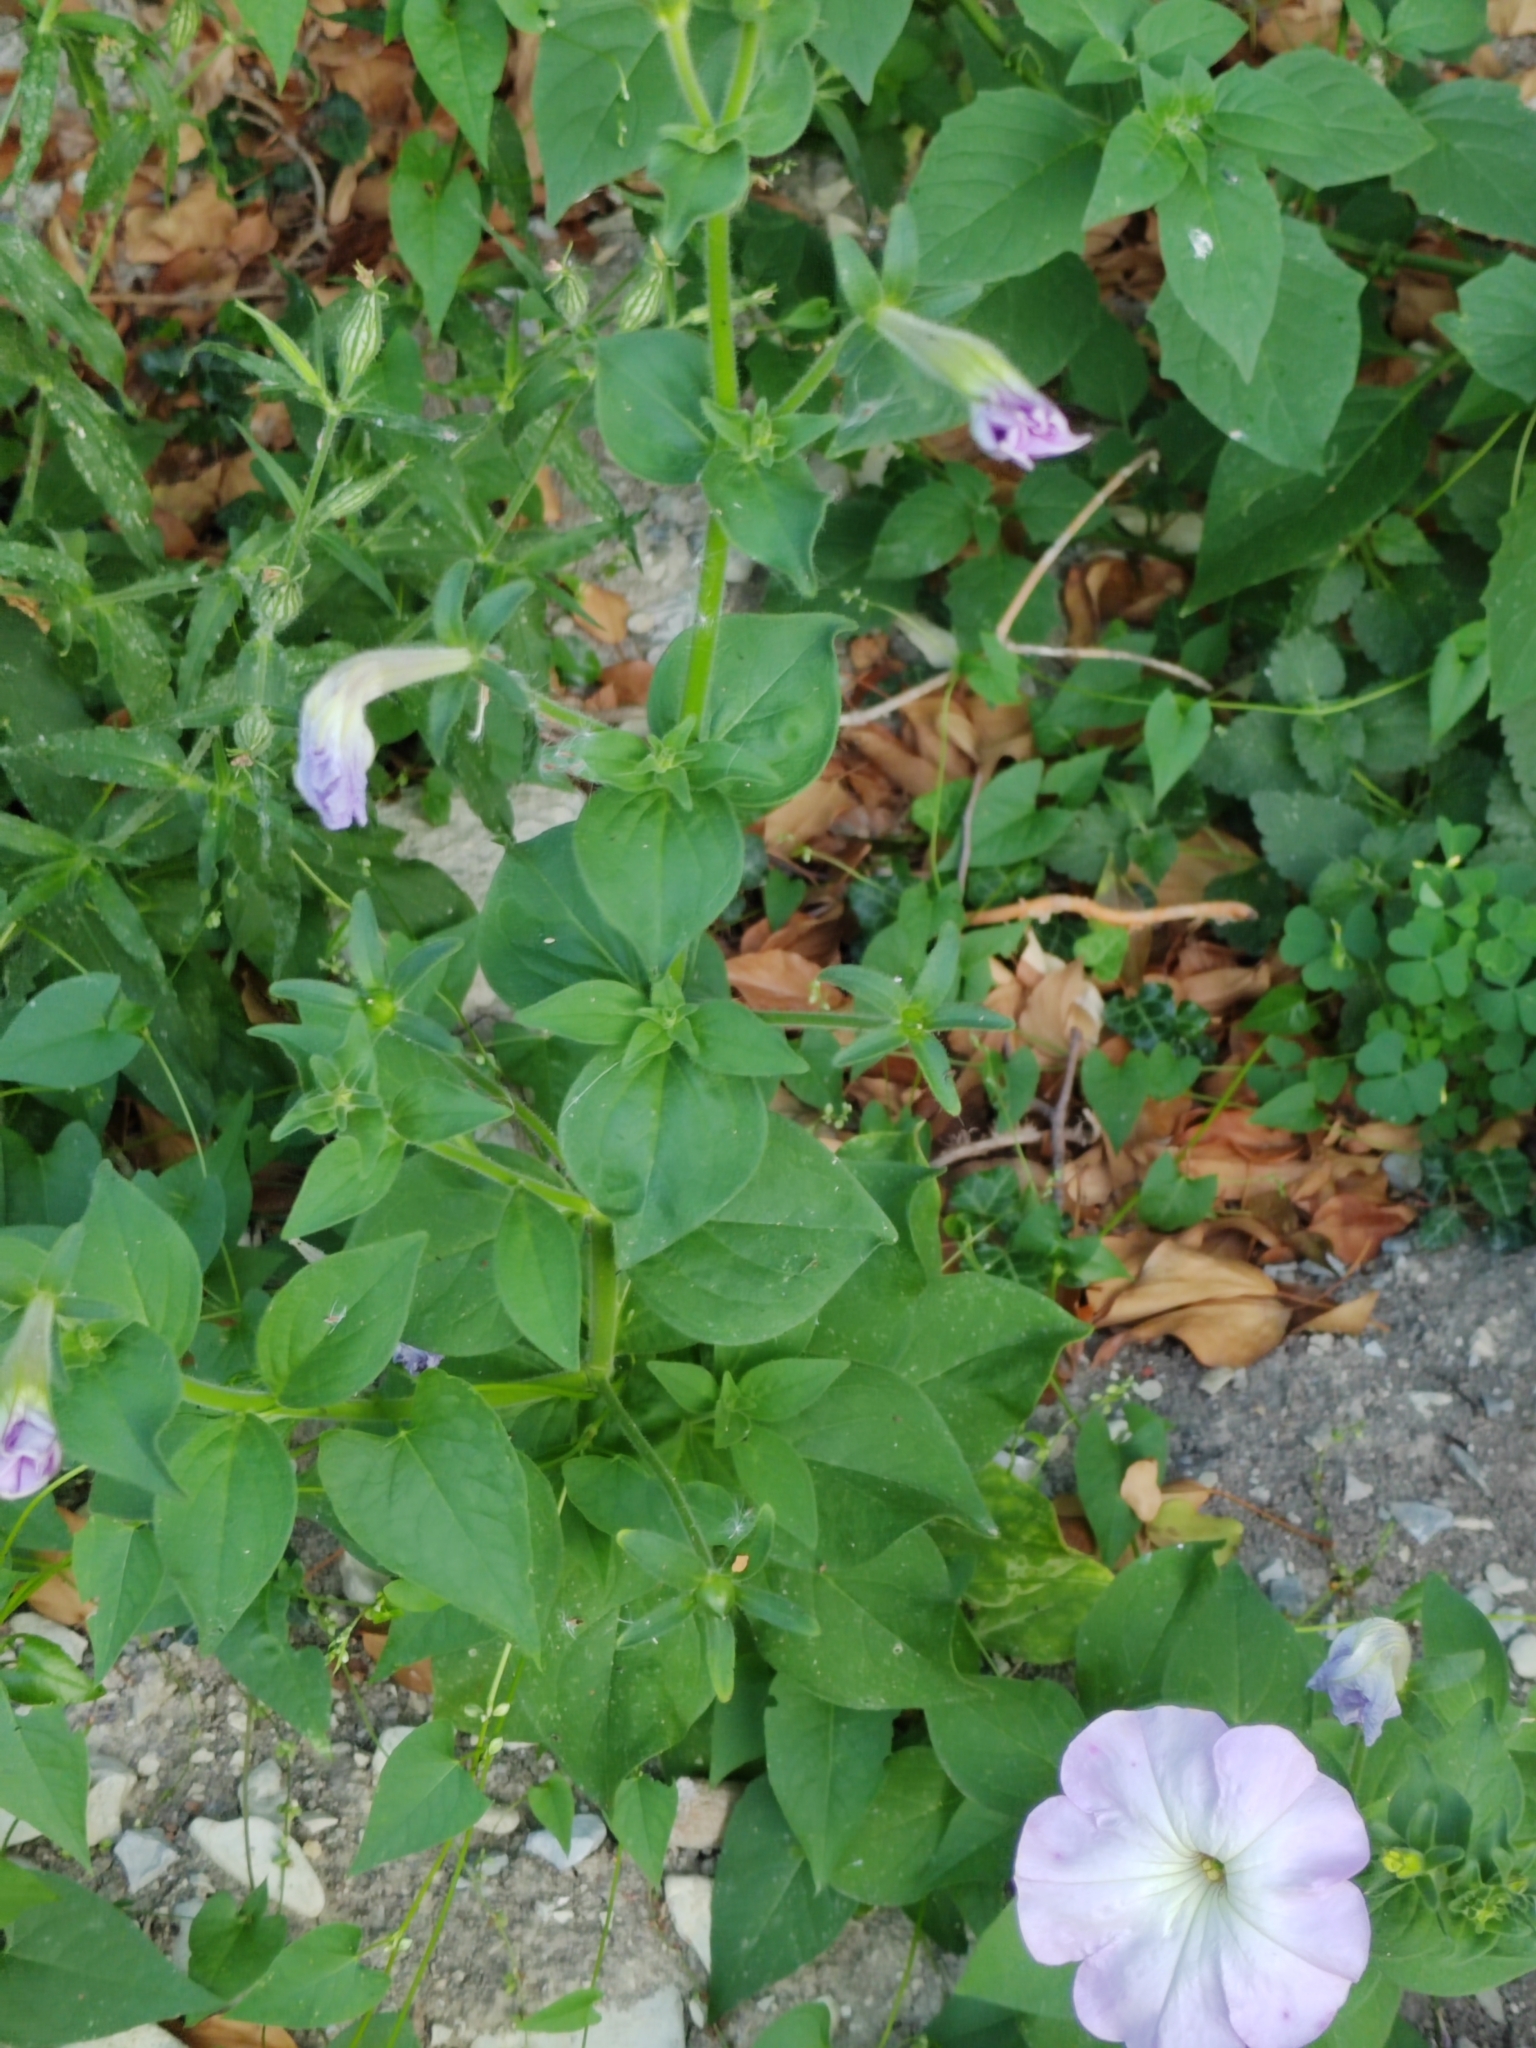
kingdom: Plantae
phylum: Tracheophyta
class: Magnoliopsida
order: Solanales
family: Solanaceae
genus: Petunia
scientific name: Petunia atkinsiana
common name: Petunia
